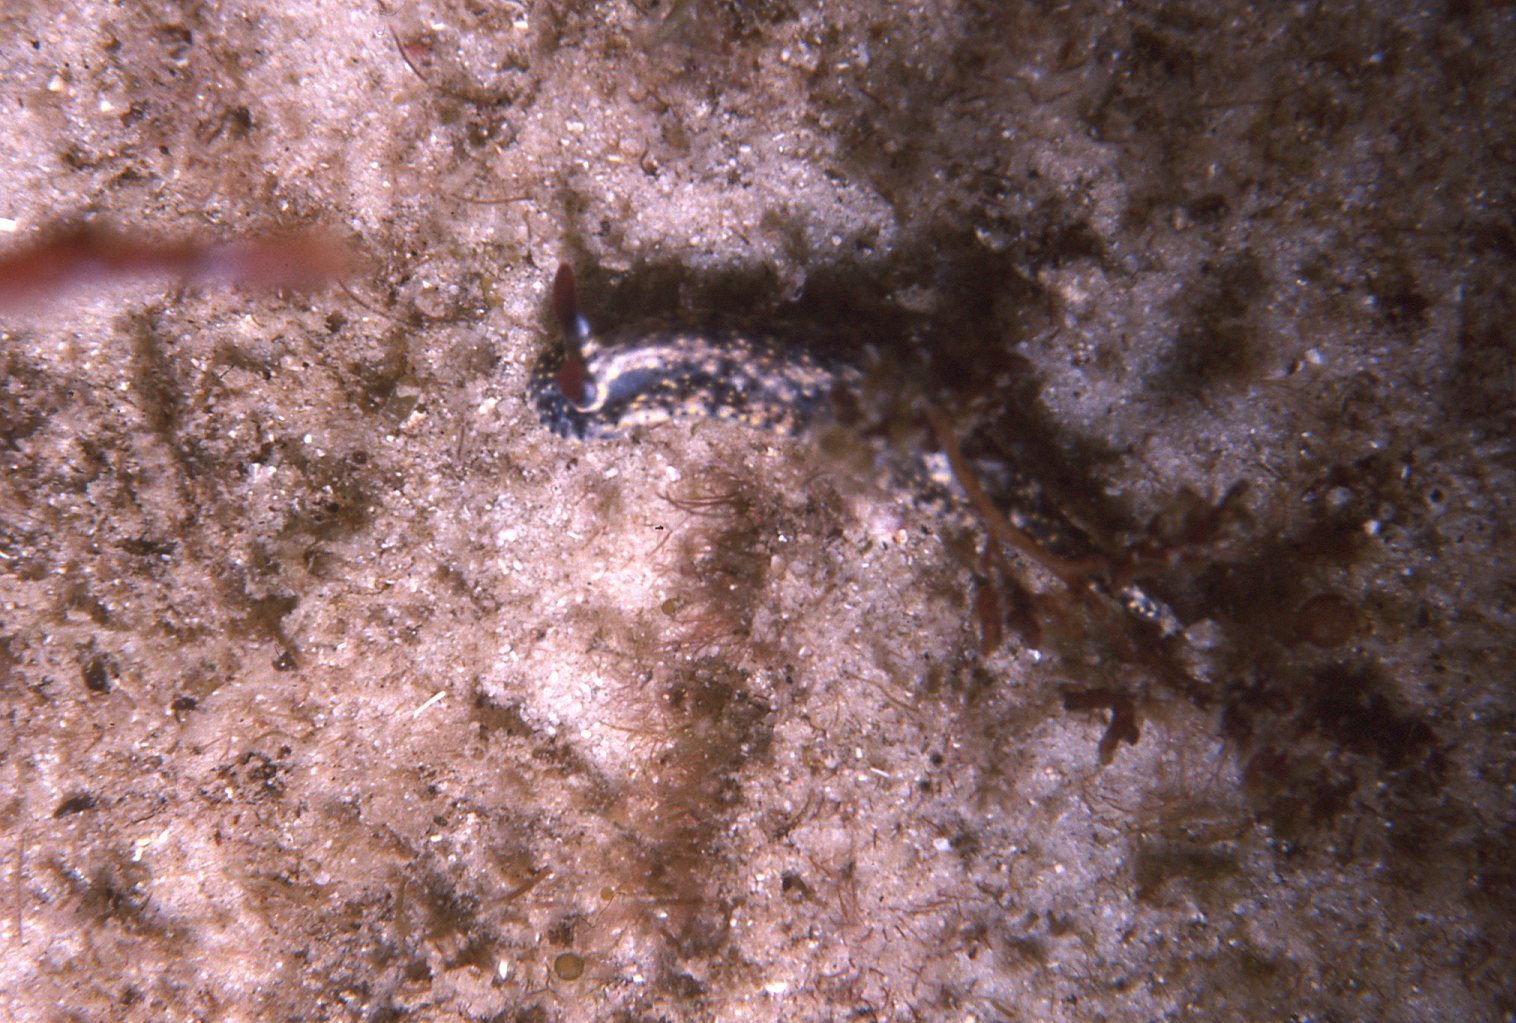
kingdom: Animalia
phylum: Mollusca
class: Gastropoda
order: Nudibranchia
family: Chromodorididae
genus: Hypselodoris
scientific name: Hypselodoris obscura
